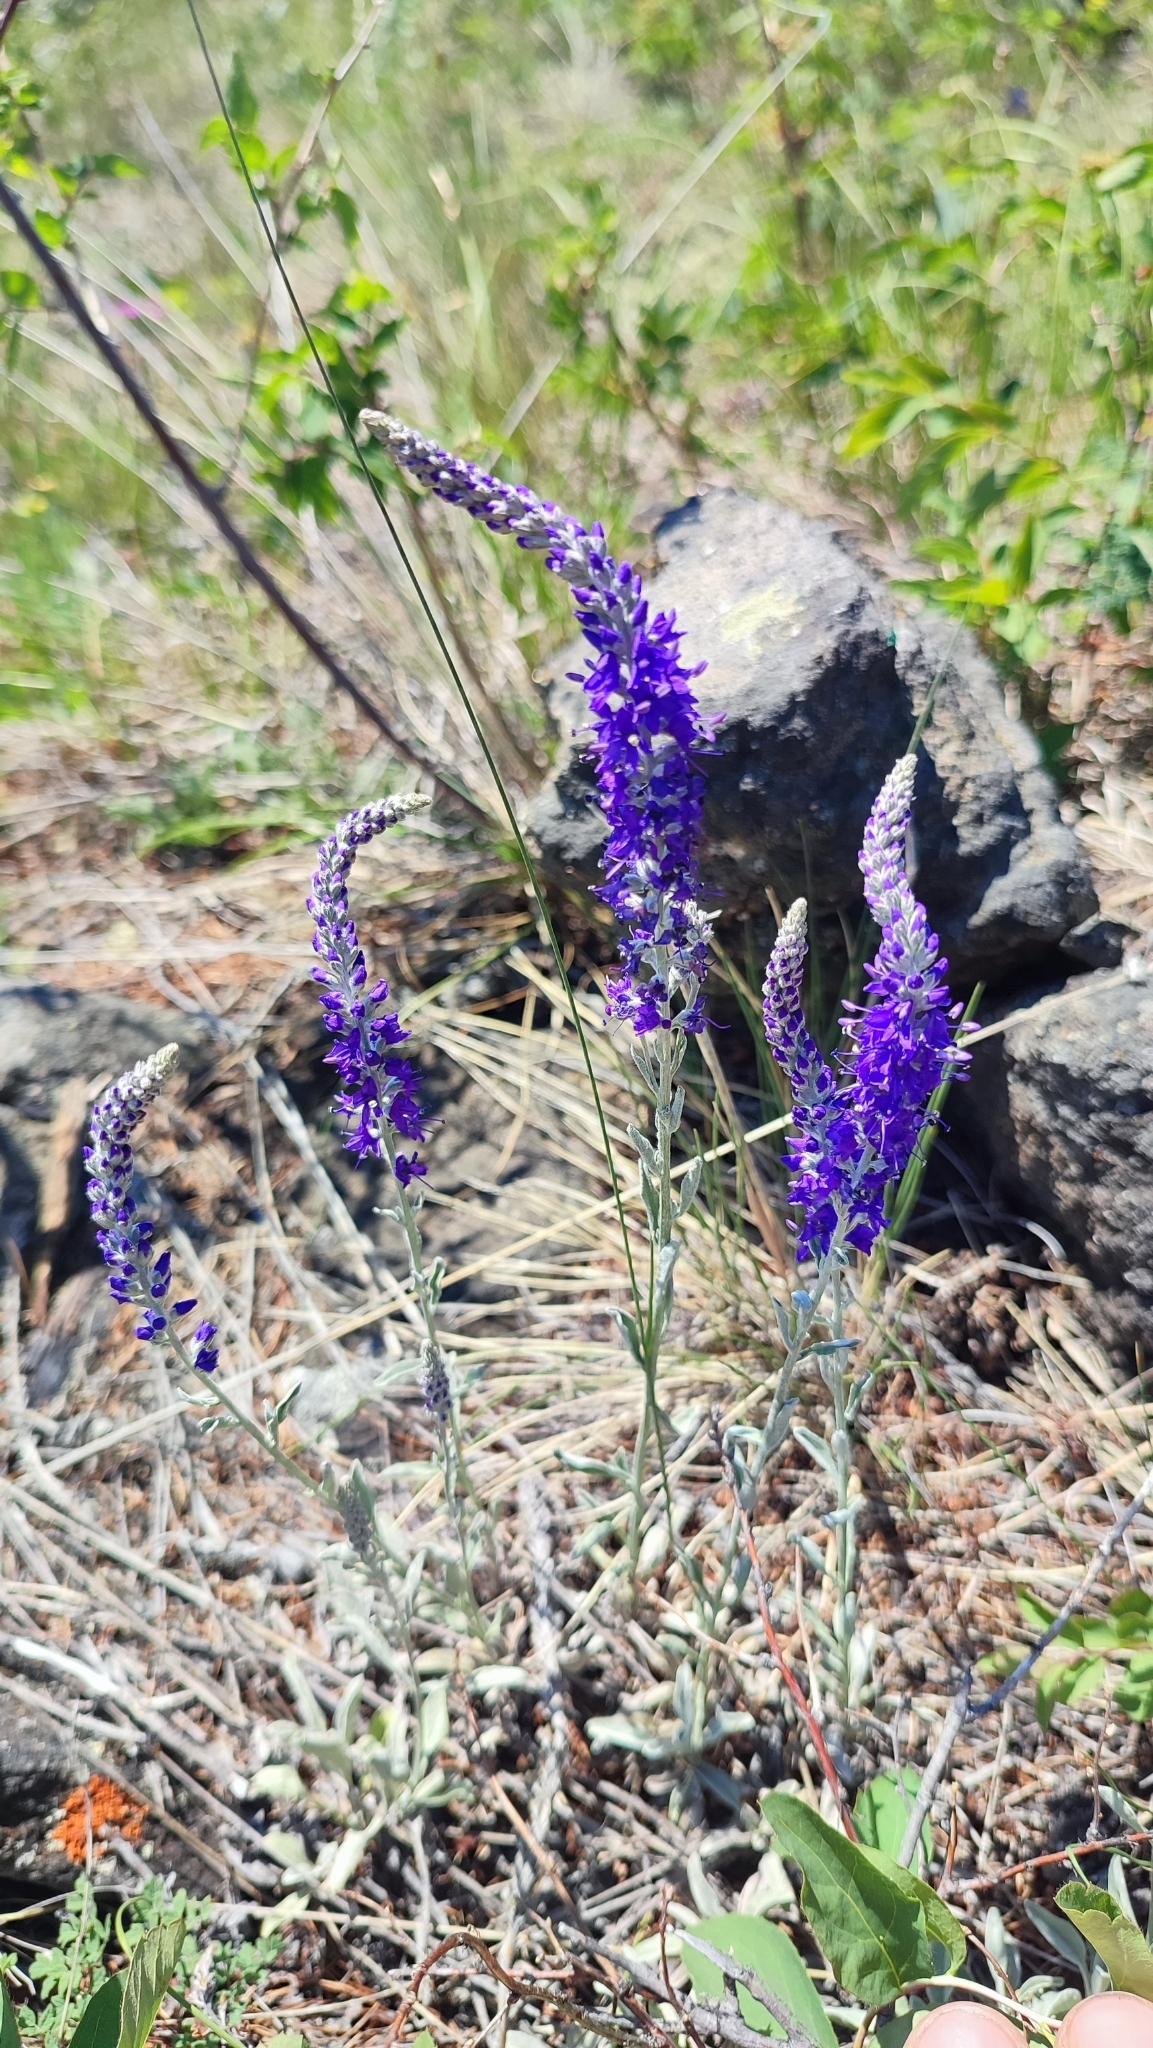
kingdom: Plantae
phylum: Tracheophyta
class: Magnoliopsida
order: Lamiales
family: Plantaginaceae
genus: Veronica
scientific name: Veronica incana
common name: Silver speedwell
